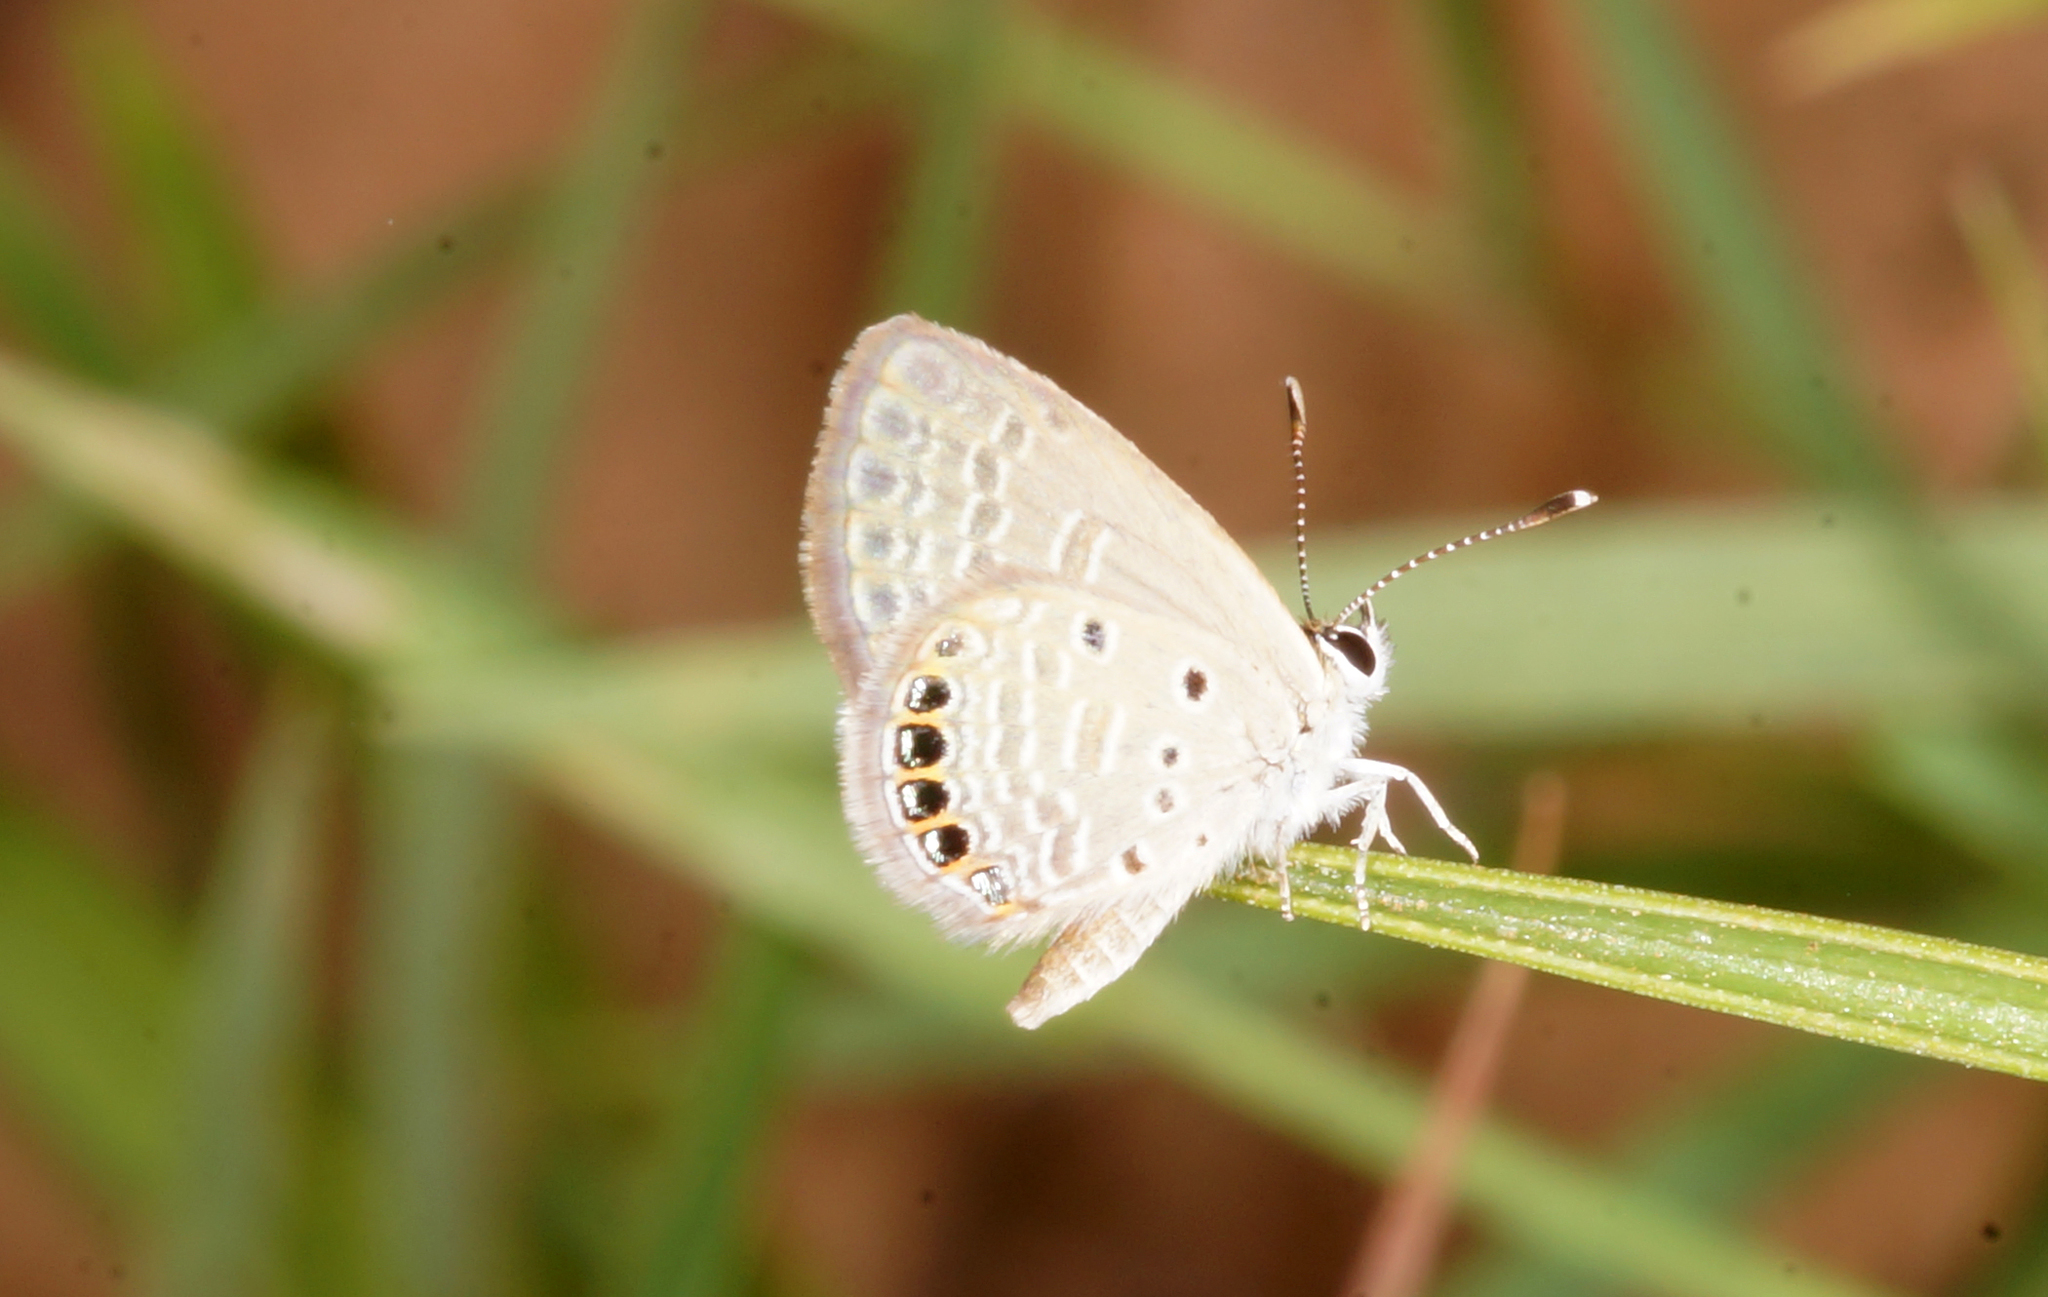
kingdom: Animalia
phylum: Arthropoda
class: Insecta
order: Lepidoptera
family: Lycaenidae
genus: Freyeria
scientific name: Freyeria putli
